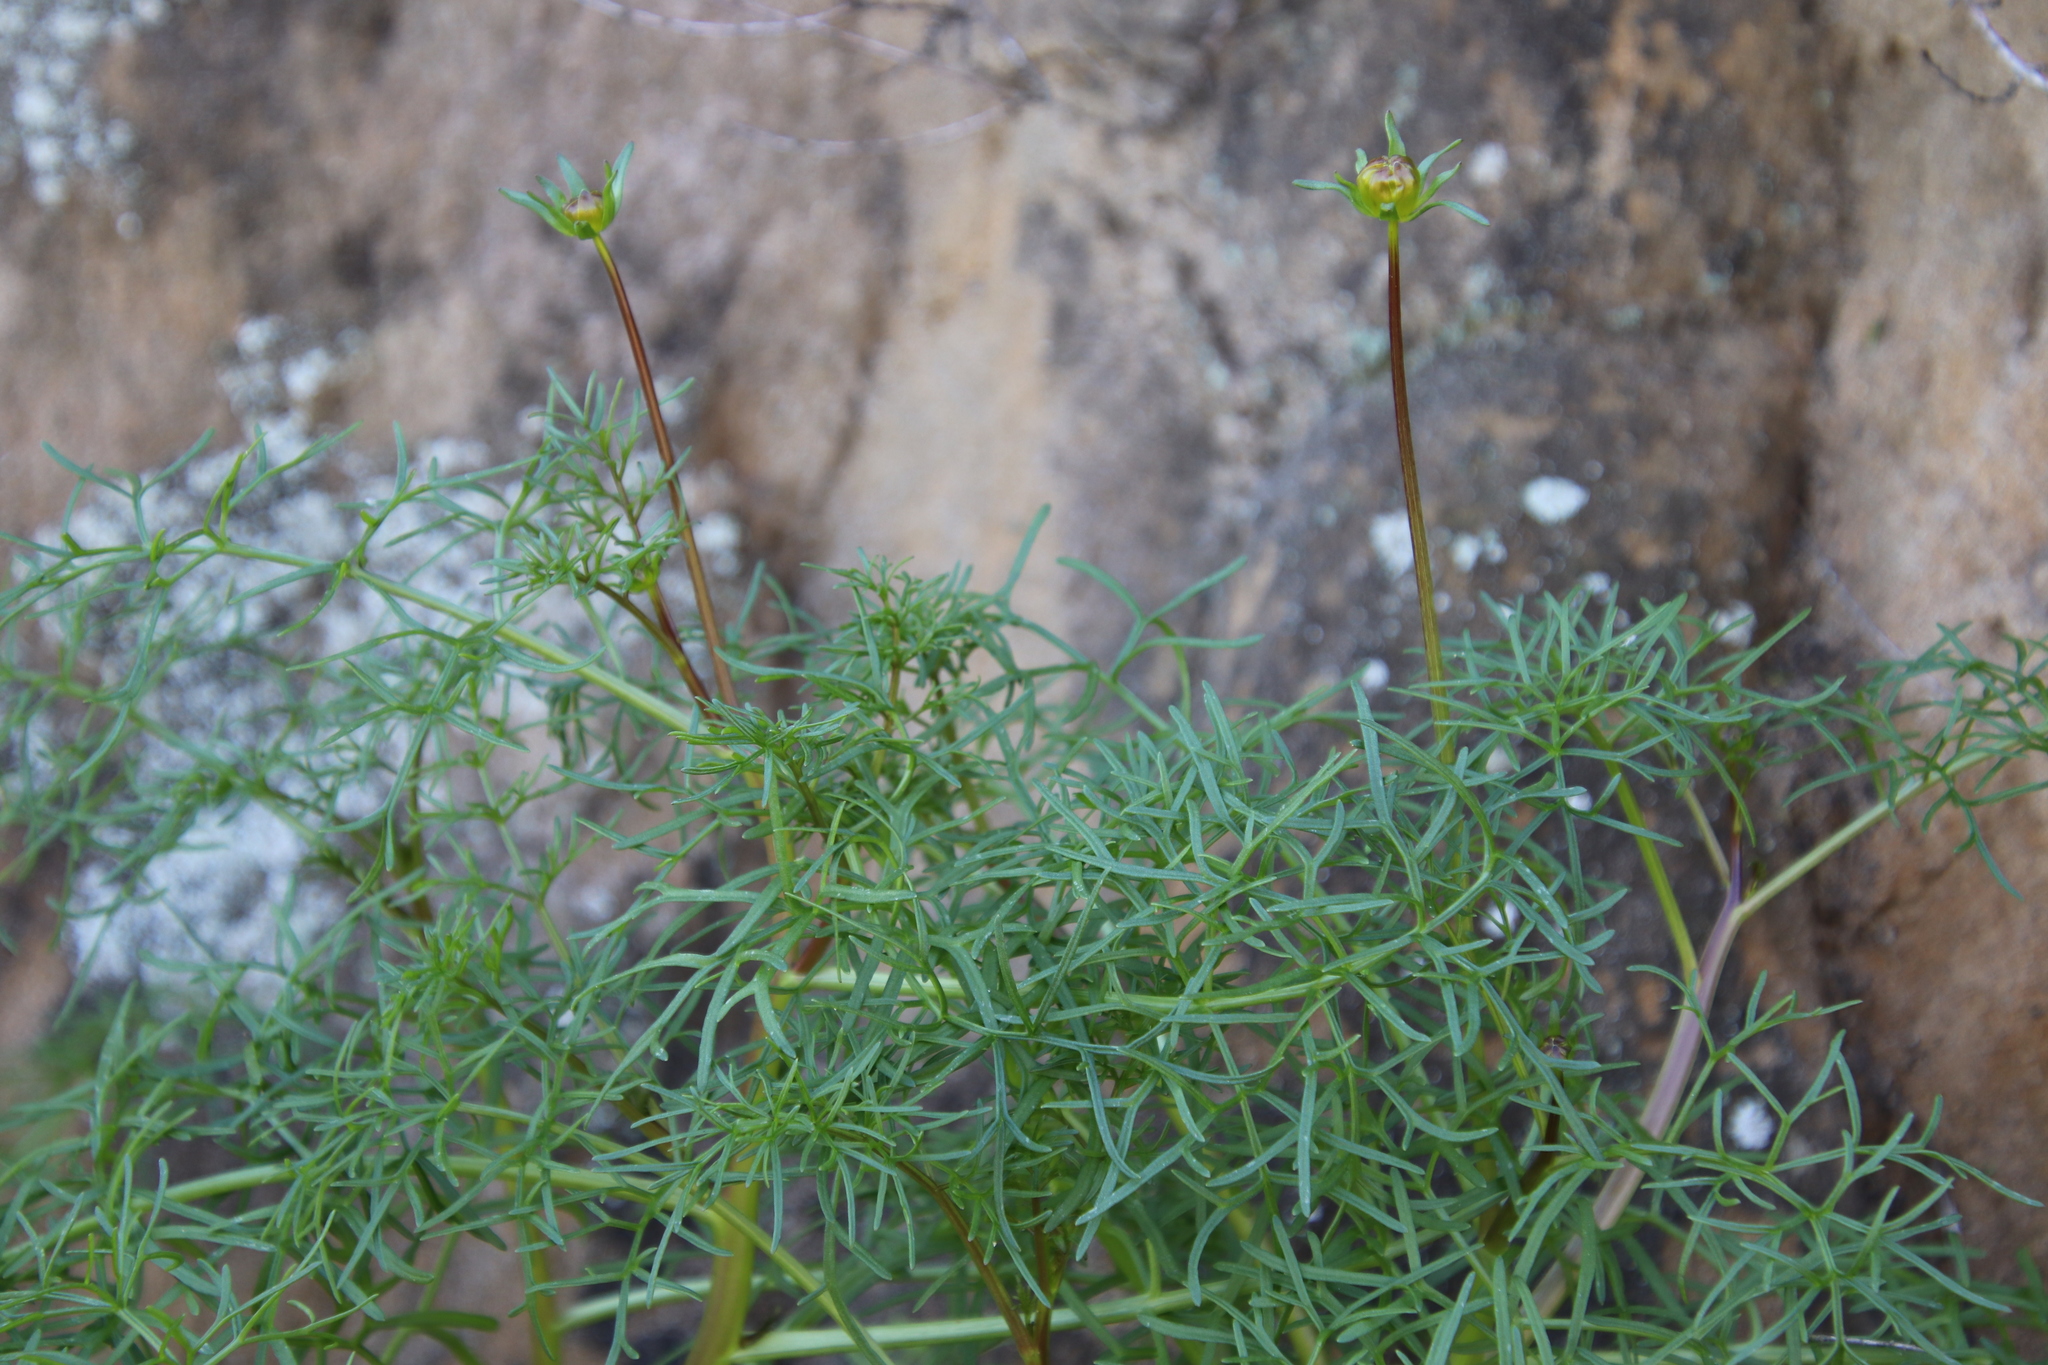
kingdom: Plantae
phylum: Tracheophyta
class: Magnoliopsida
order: Asterales
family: Asteraceae
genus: Coreopsis
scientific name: Coreopsis maritima
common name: Sea-dahlia
